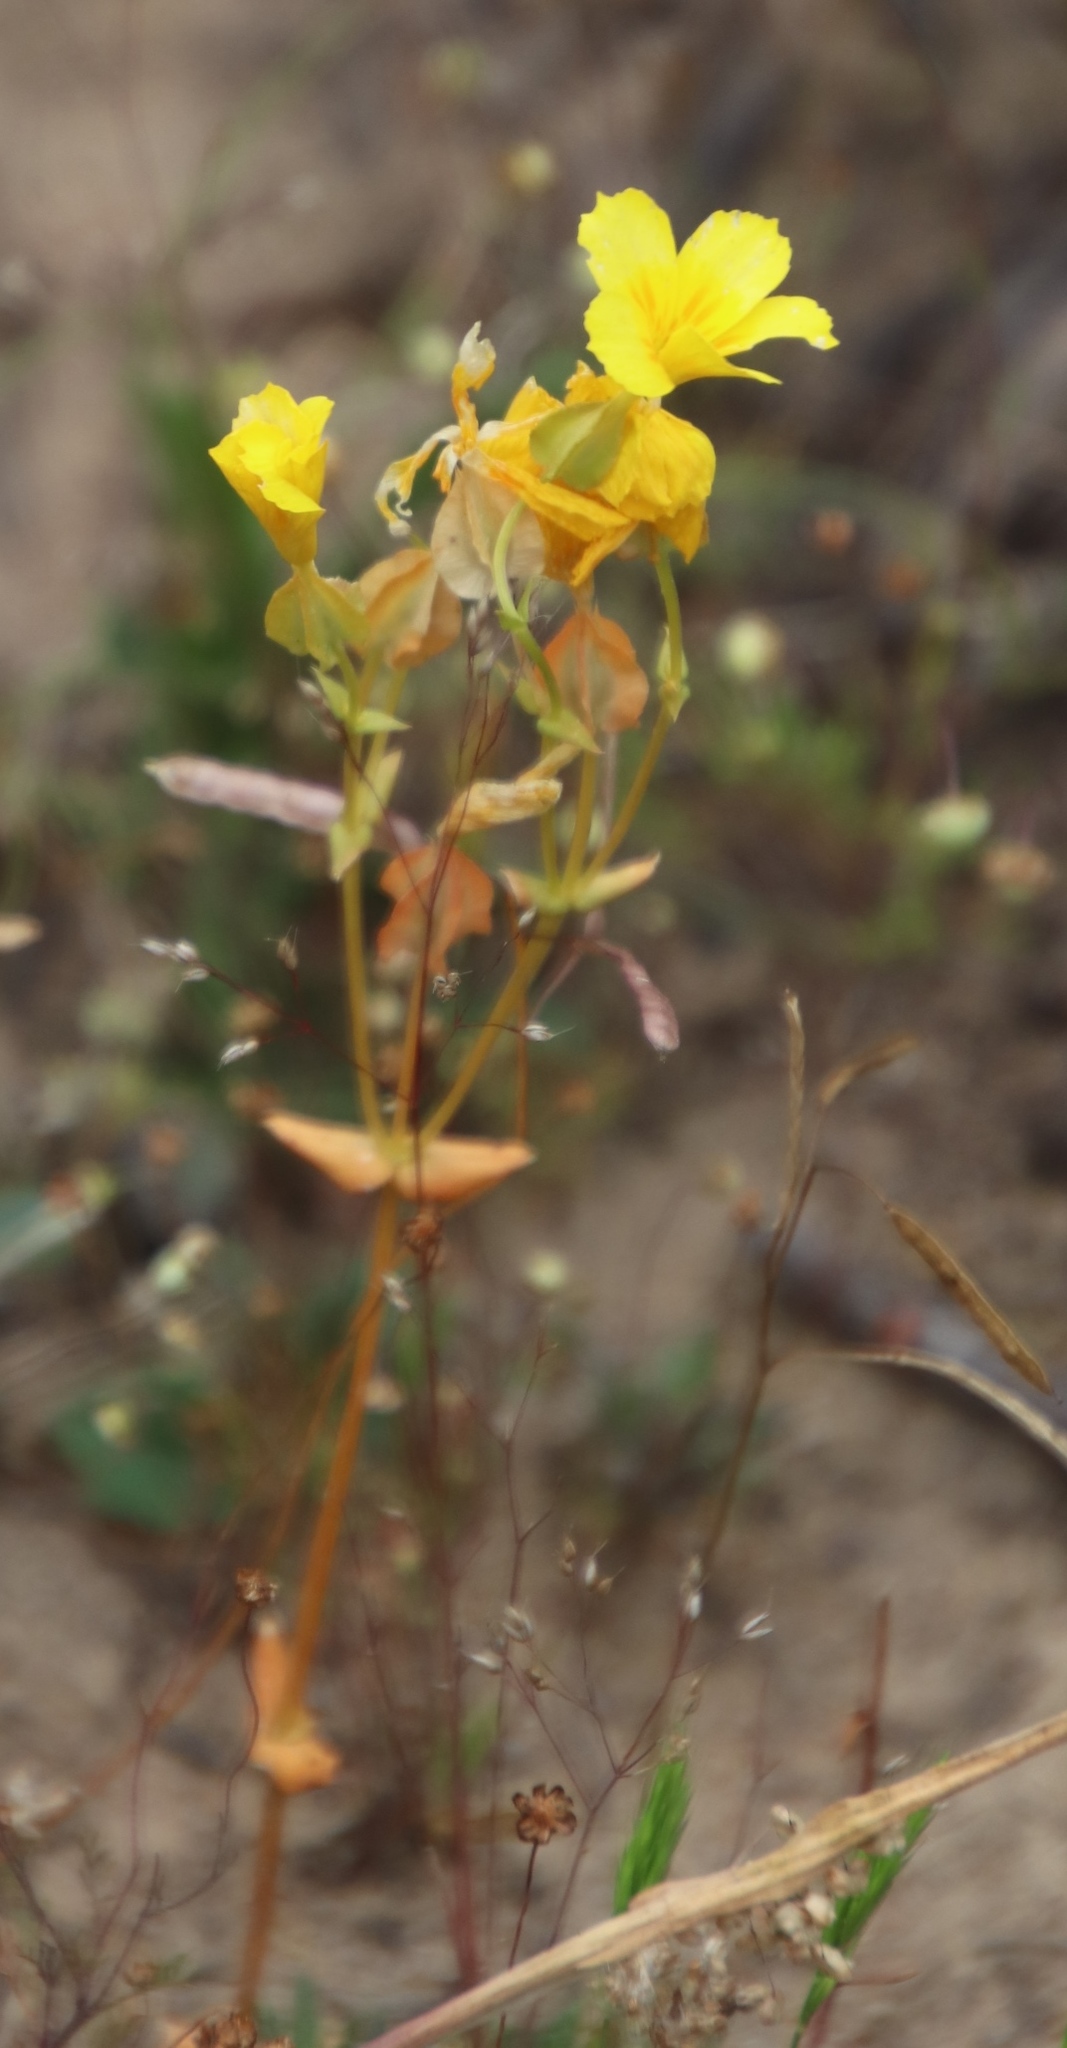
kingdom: Plantae
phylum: Tracheophyta
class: Magnoliopsida
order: Gentianales
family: Gentianaceae
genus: Sebaea
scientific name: Sebaea solaris
